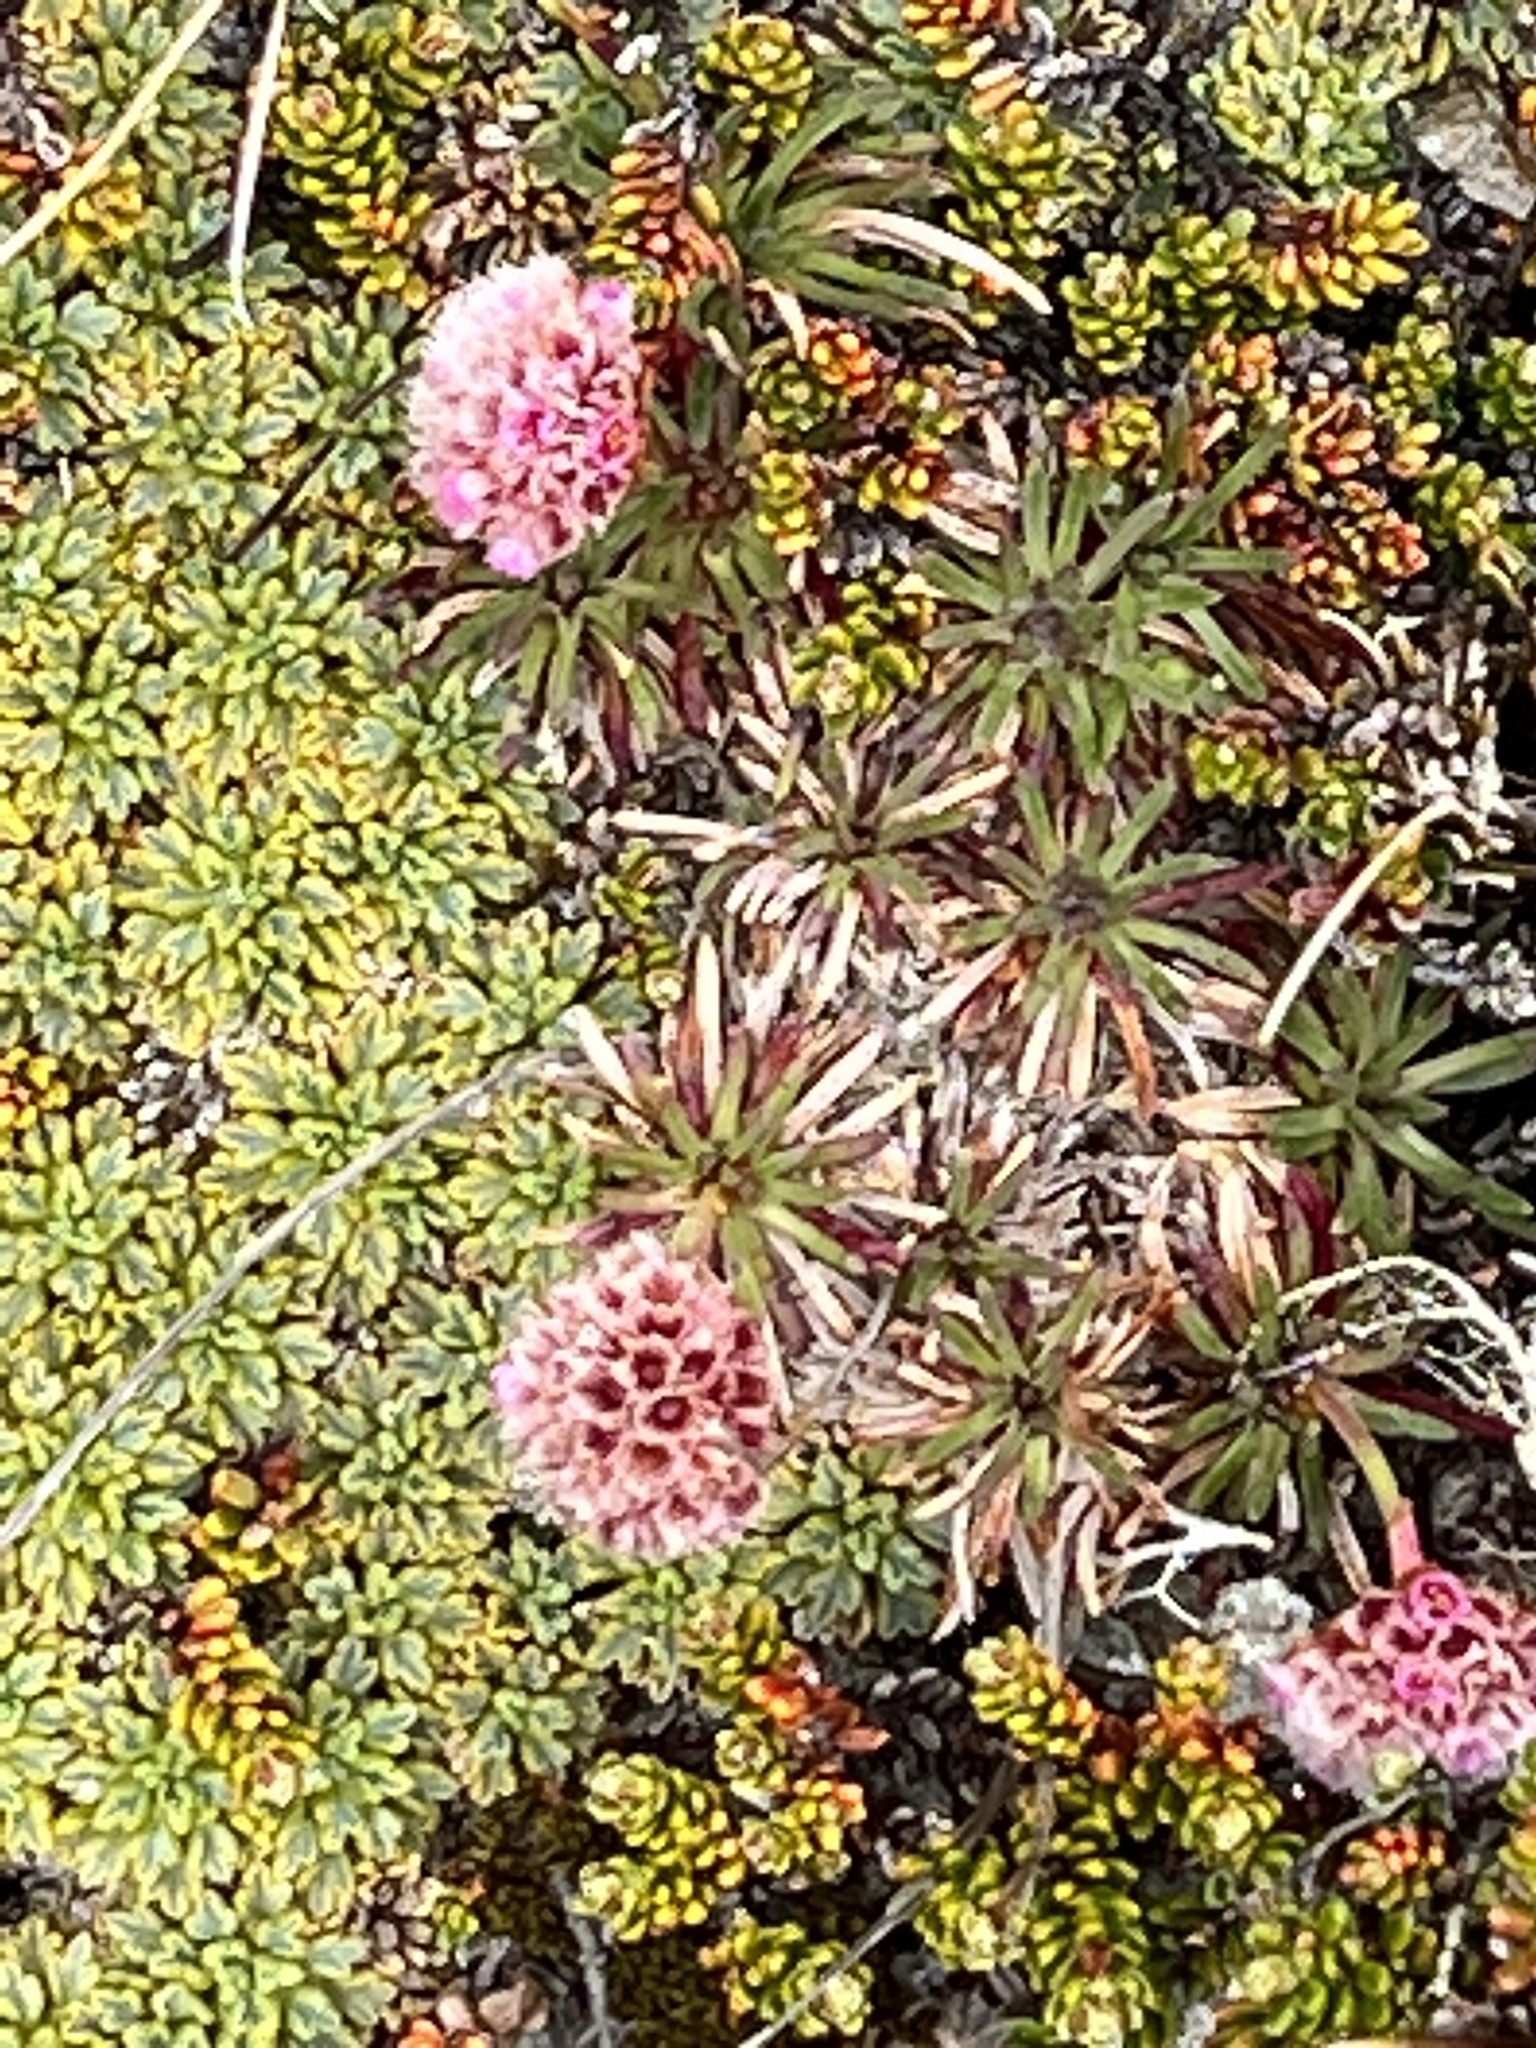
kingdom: Plantae
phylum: Tracheophyta
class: Magnoliopsida
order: Caryophyllales
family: Plumbaginaceae
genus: Armeria
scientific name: Armeria curvifolia
